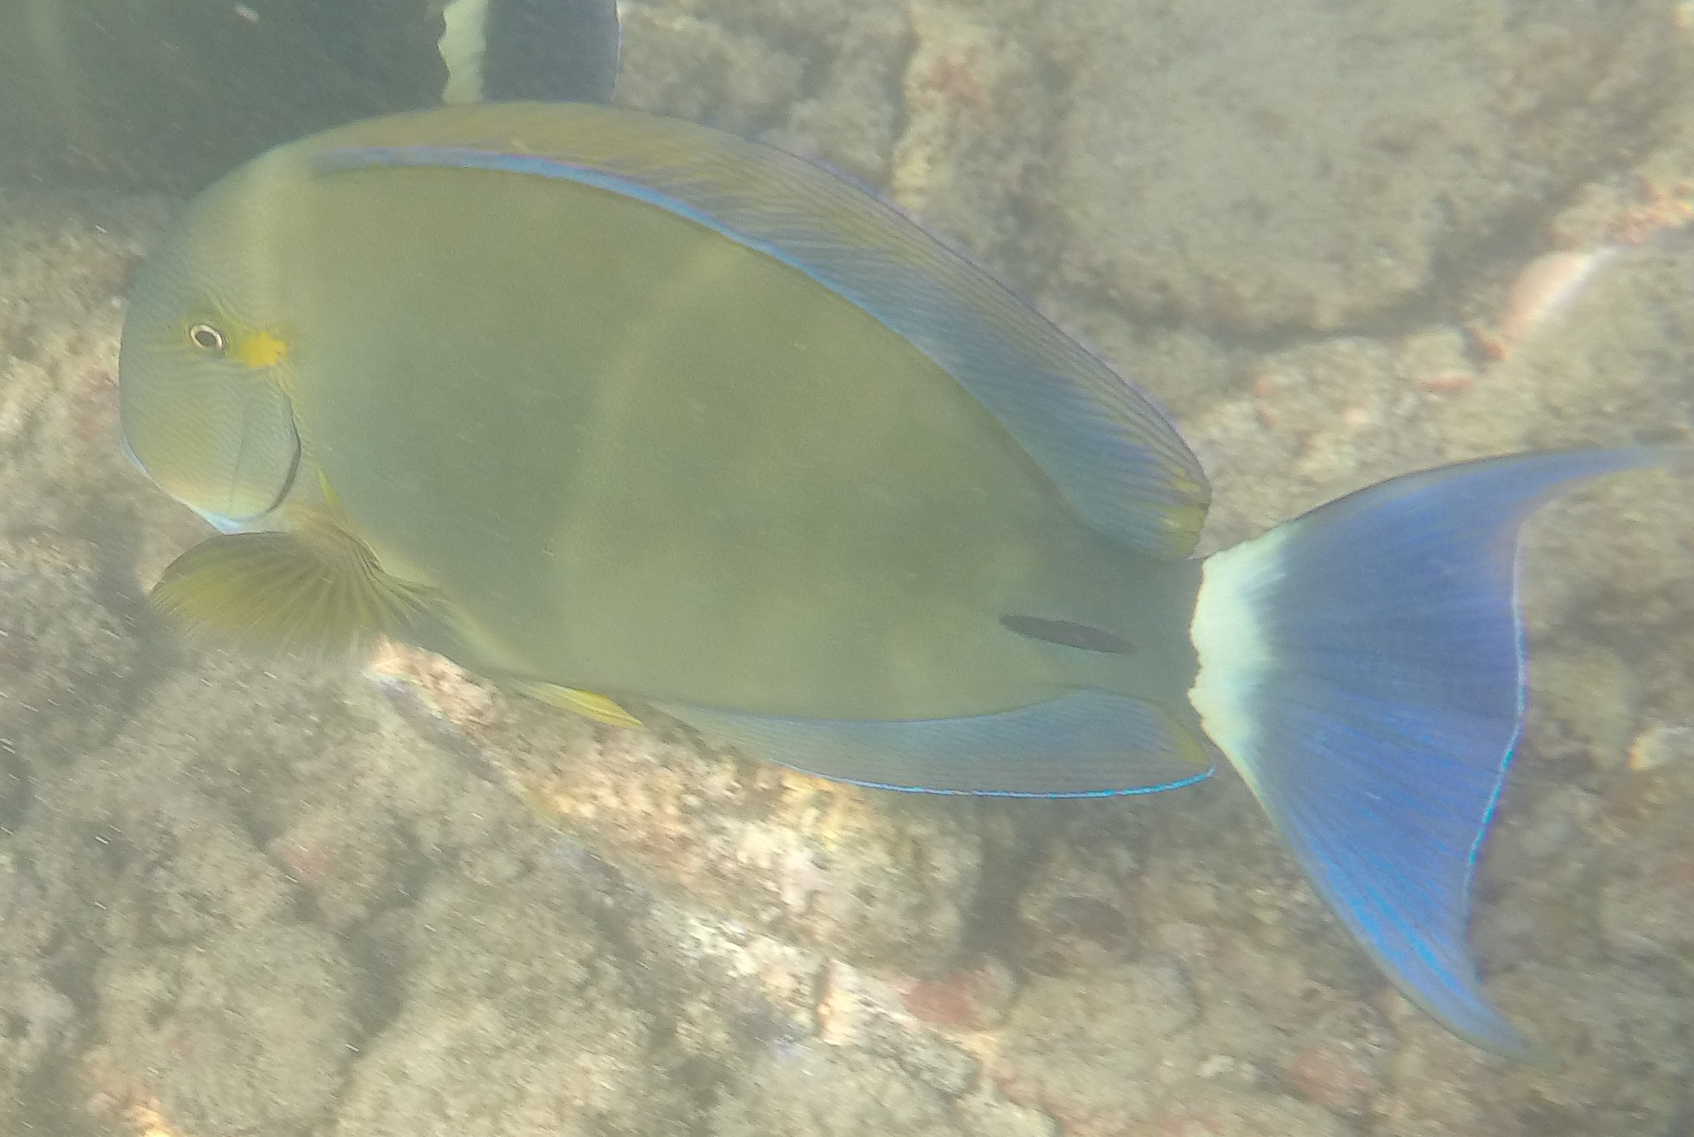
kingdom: Animalia
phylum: Chordata
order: Perciformes
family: Acanthuridae
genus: Acanthurus
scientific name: Acanthurus blochii
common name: Blue-banded pualu
